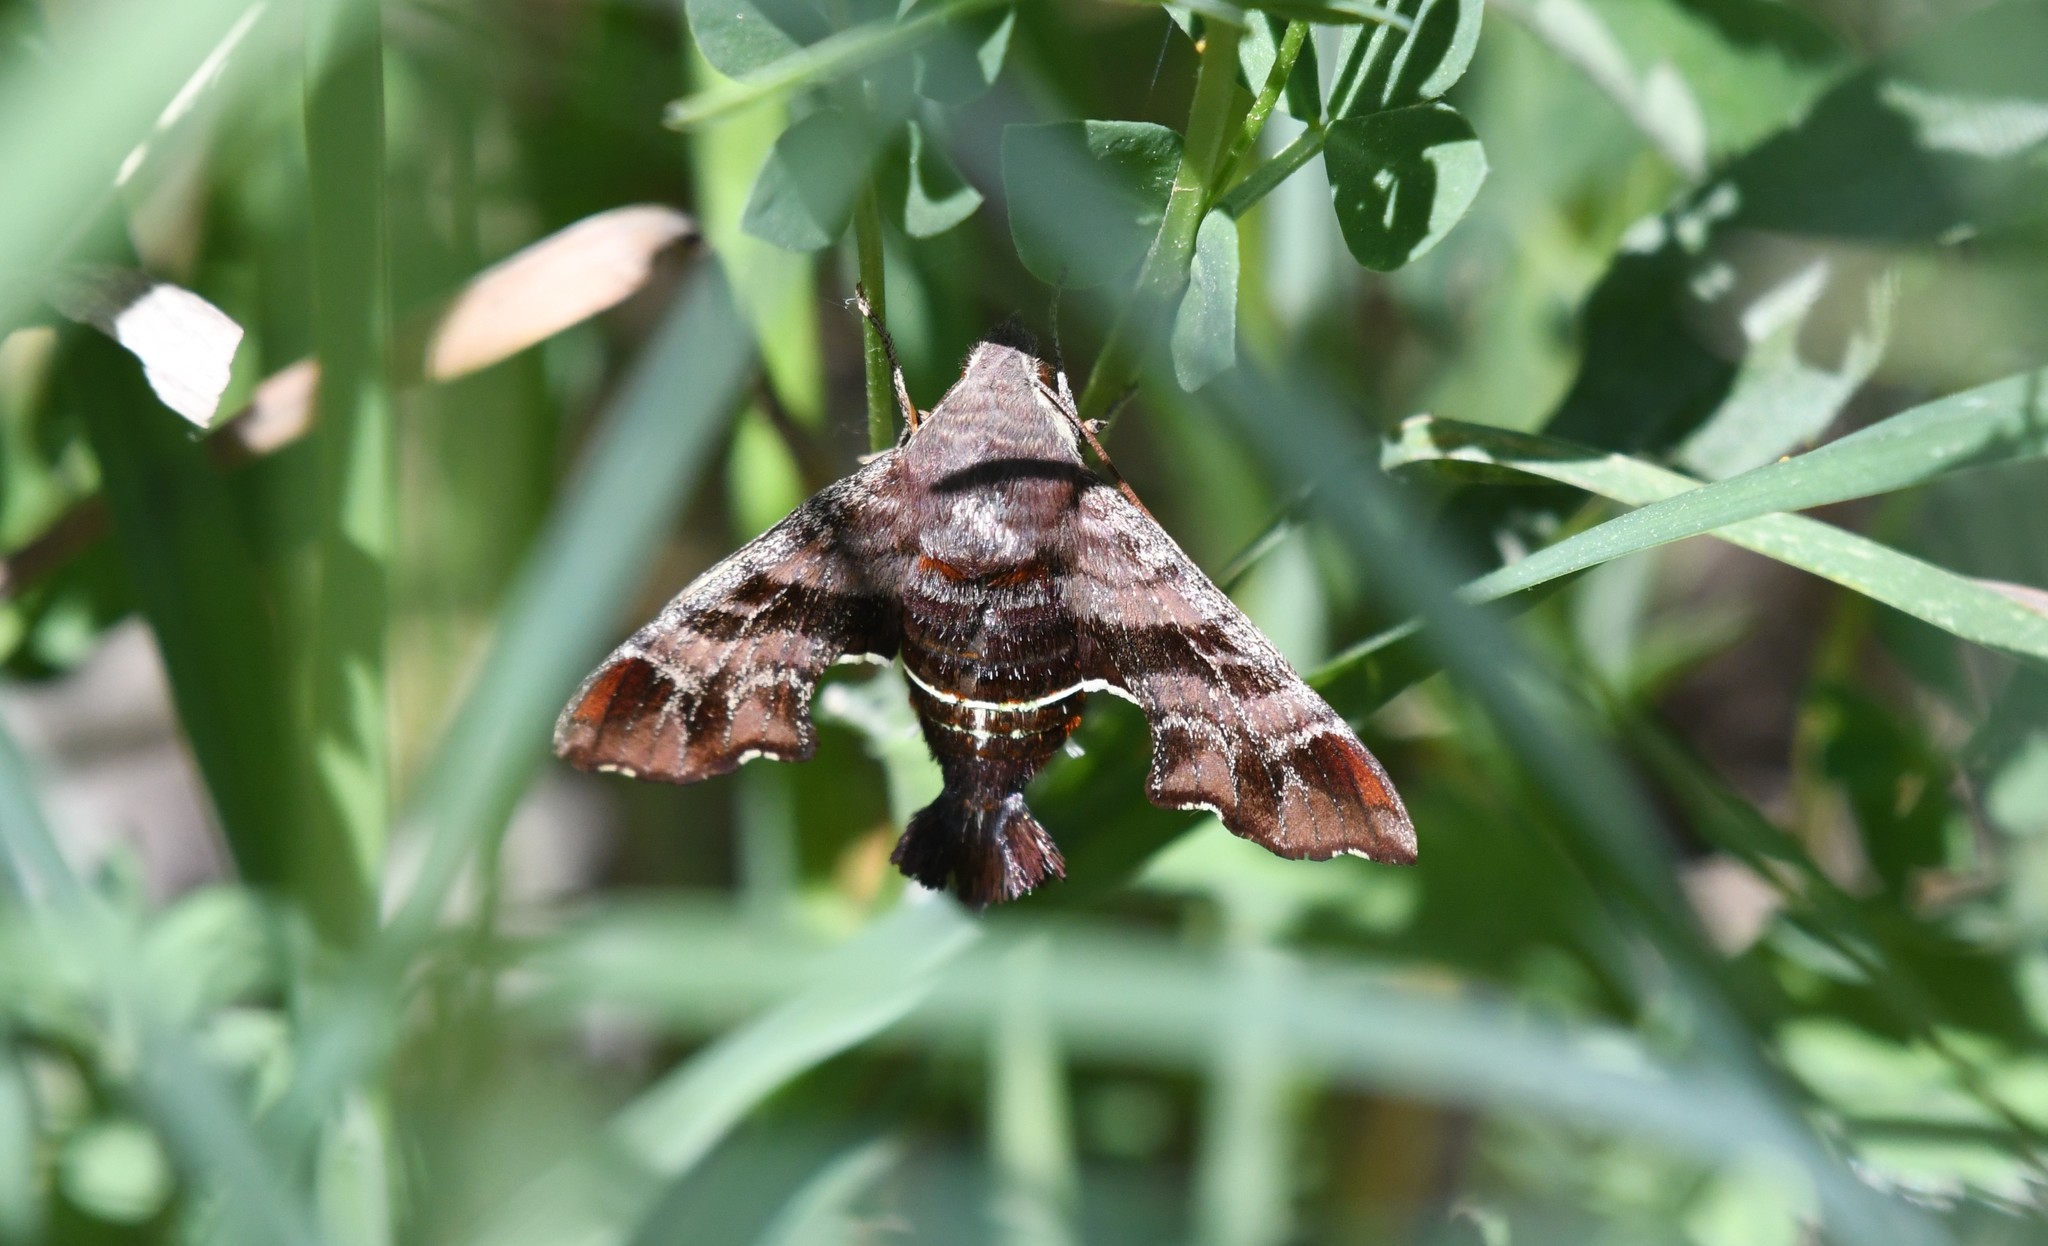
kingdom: Animalia
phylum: Arthropoda
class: Insecta
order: Lepidoptera
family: Sphingidae
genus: Amphion
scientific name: Amphion floridensis
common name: Nessus sphinx
